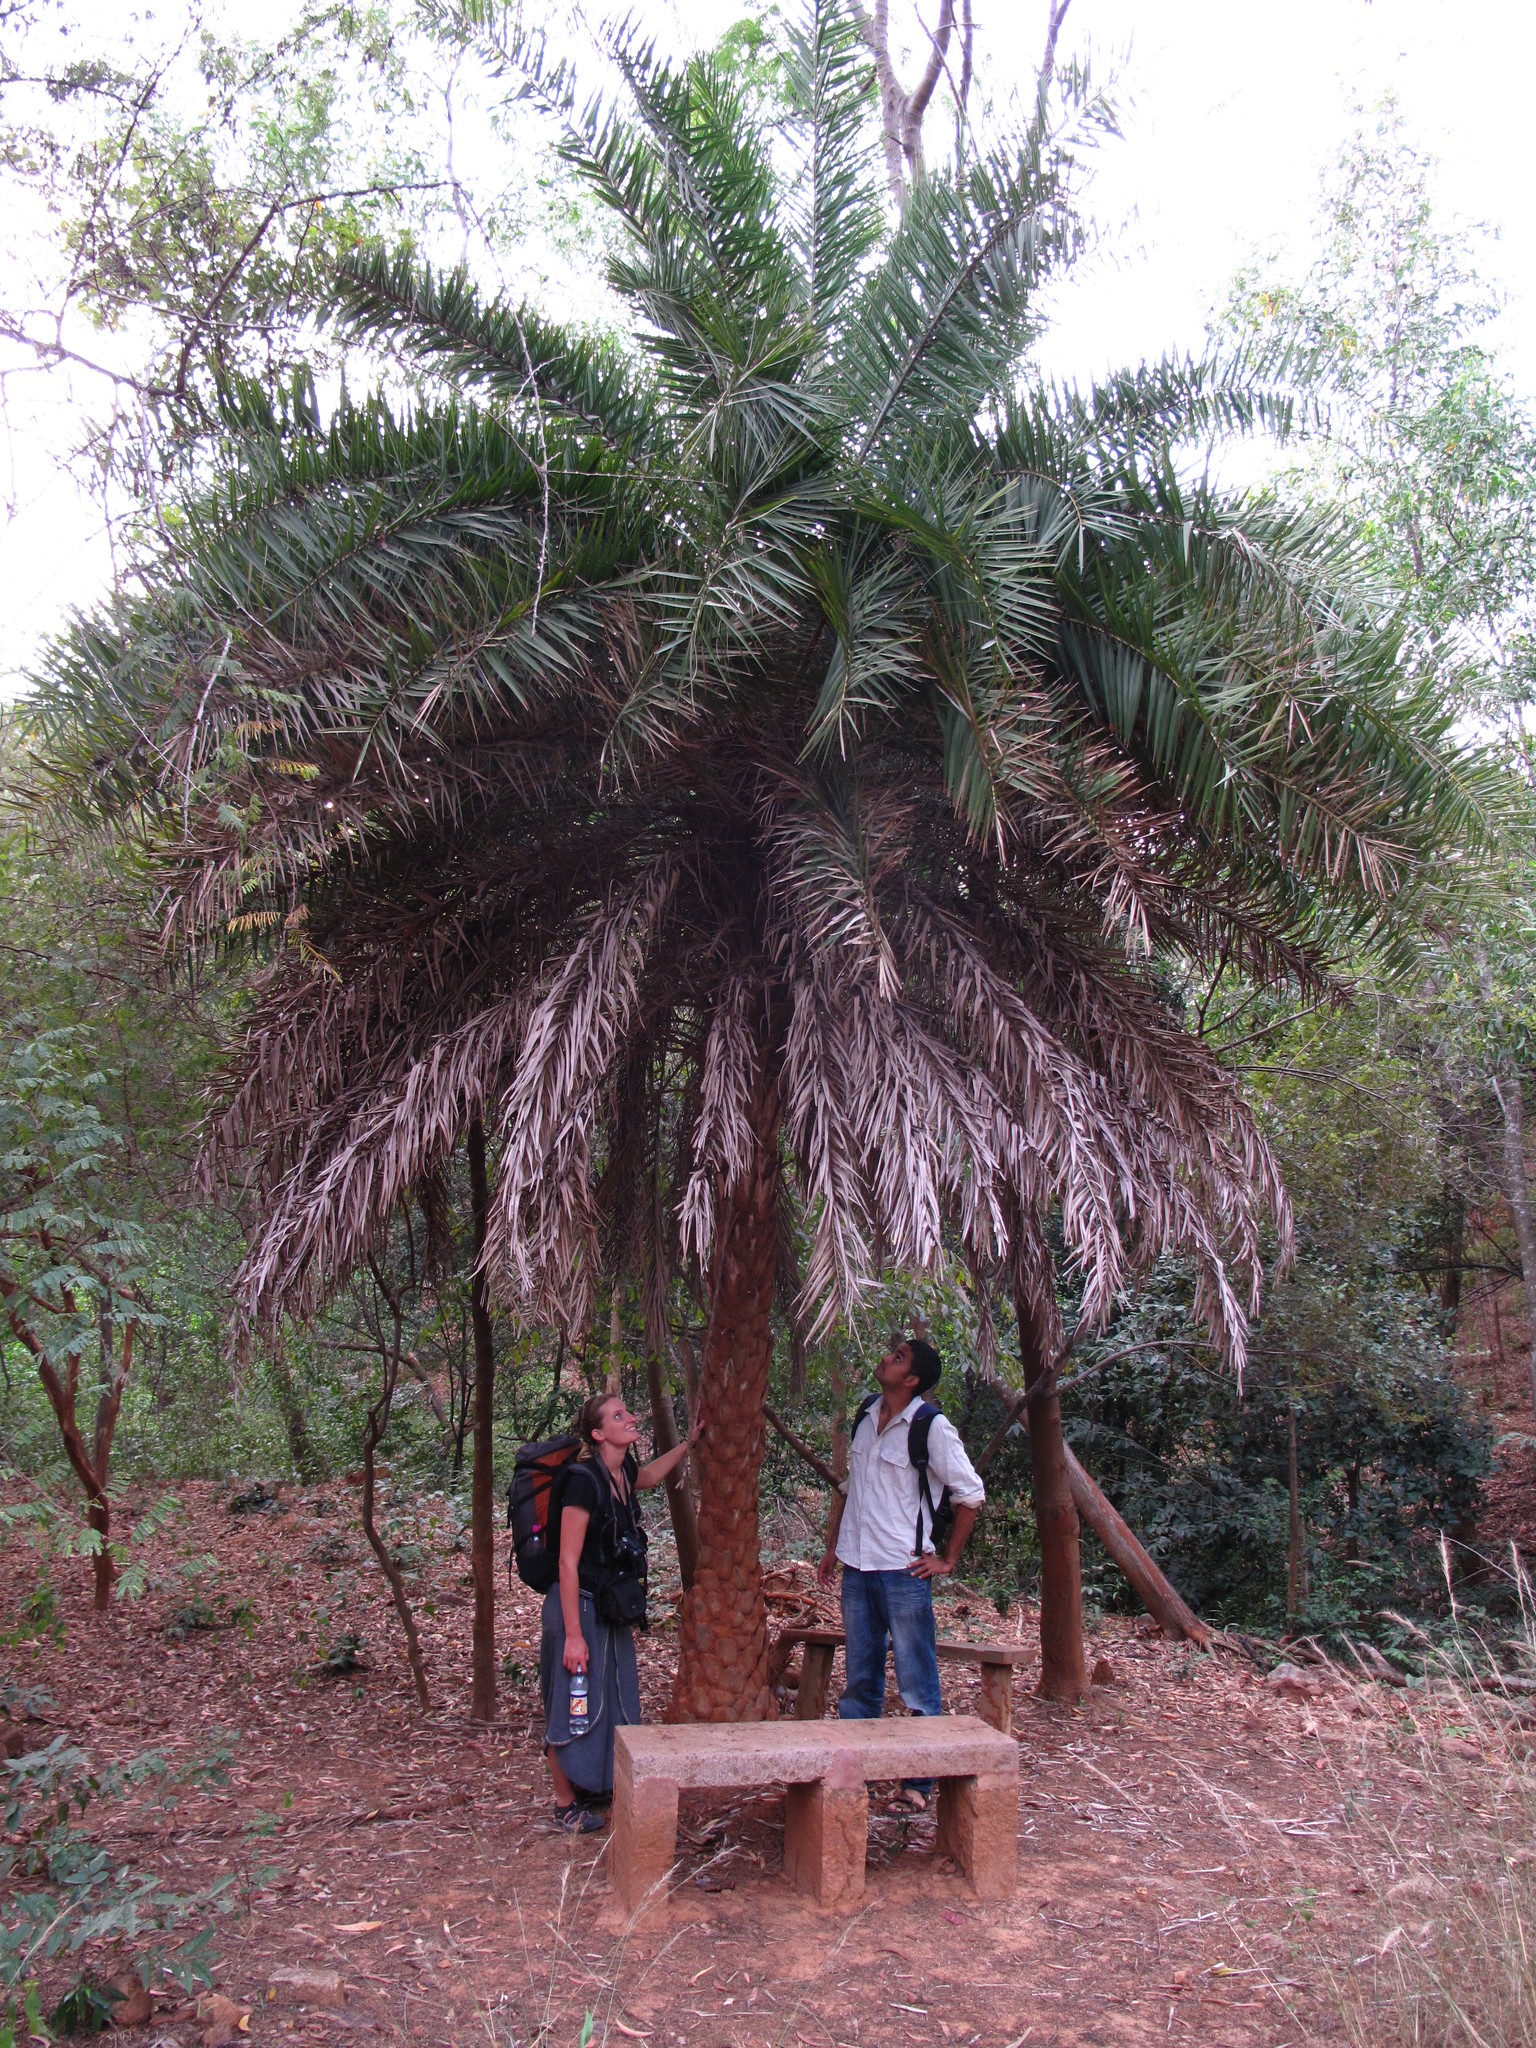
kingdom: Plantae
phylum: Tracheophyta
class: Liliopsida
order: Arecales
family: Arecaceae
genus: Phoenix
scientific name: Phoenix sylvestris
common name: Wild date palm
